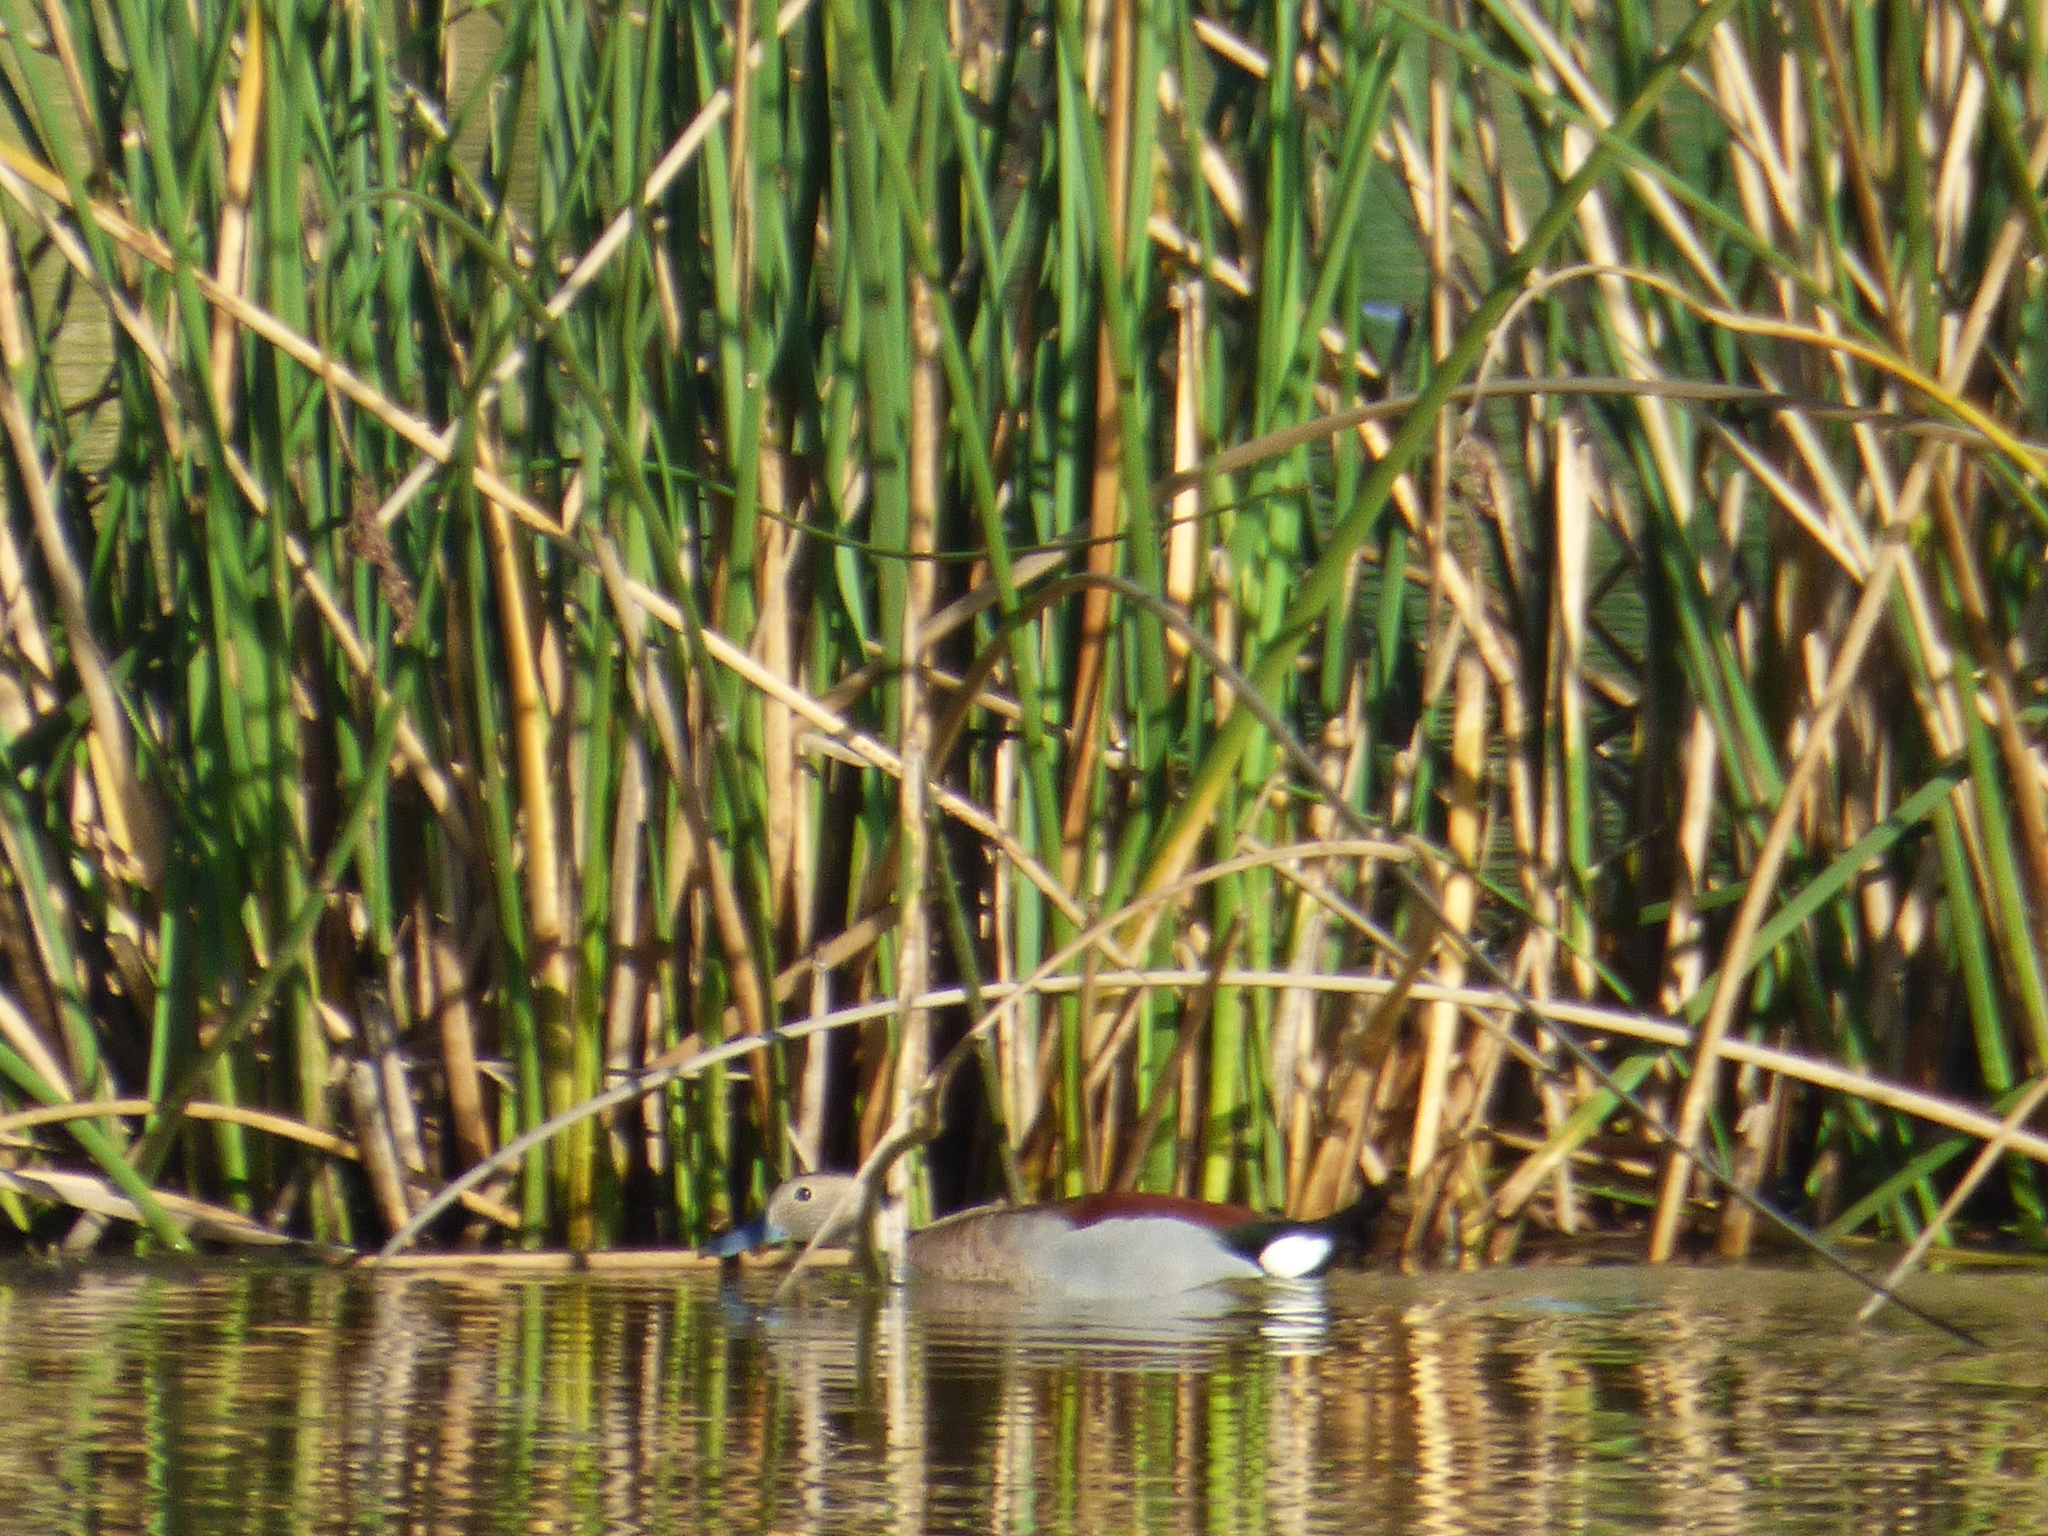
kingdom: Animalia
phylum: Chordata
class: Aves
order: Anseriformes
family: Anatidae
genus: Callonetta
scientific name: Callonetta leucophrys
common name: Ringed teal
